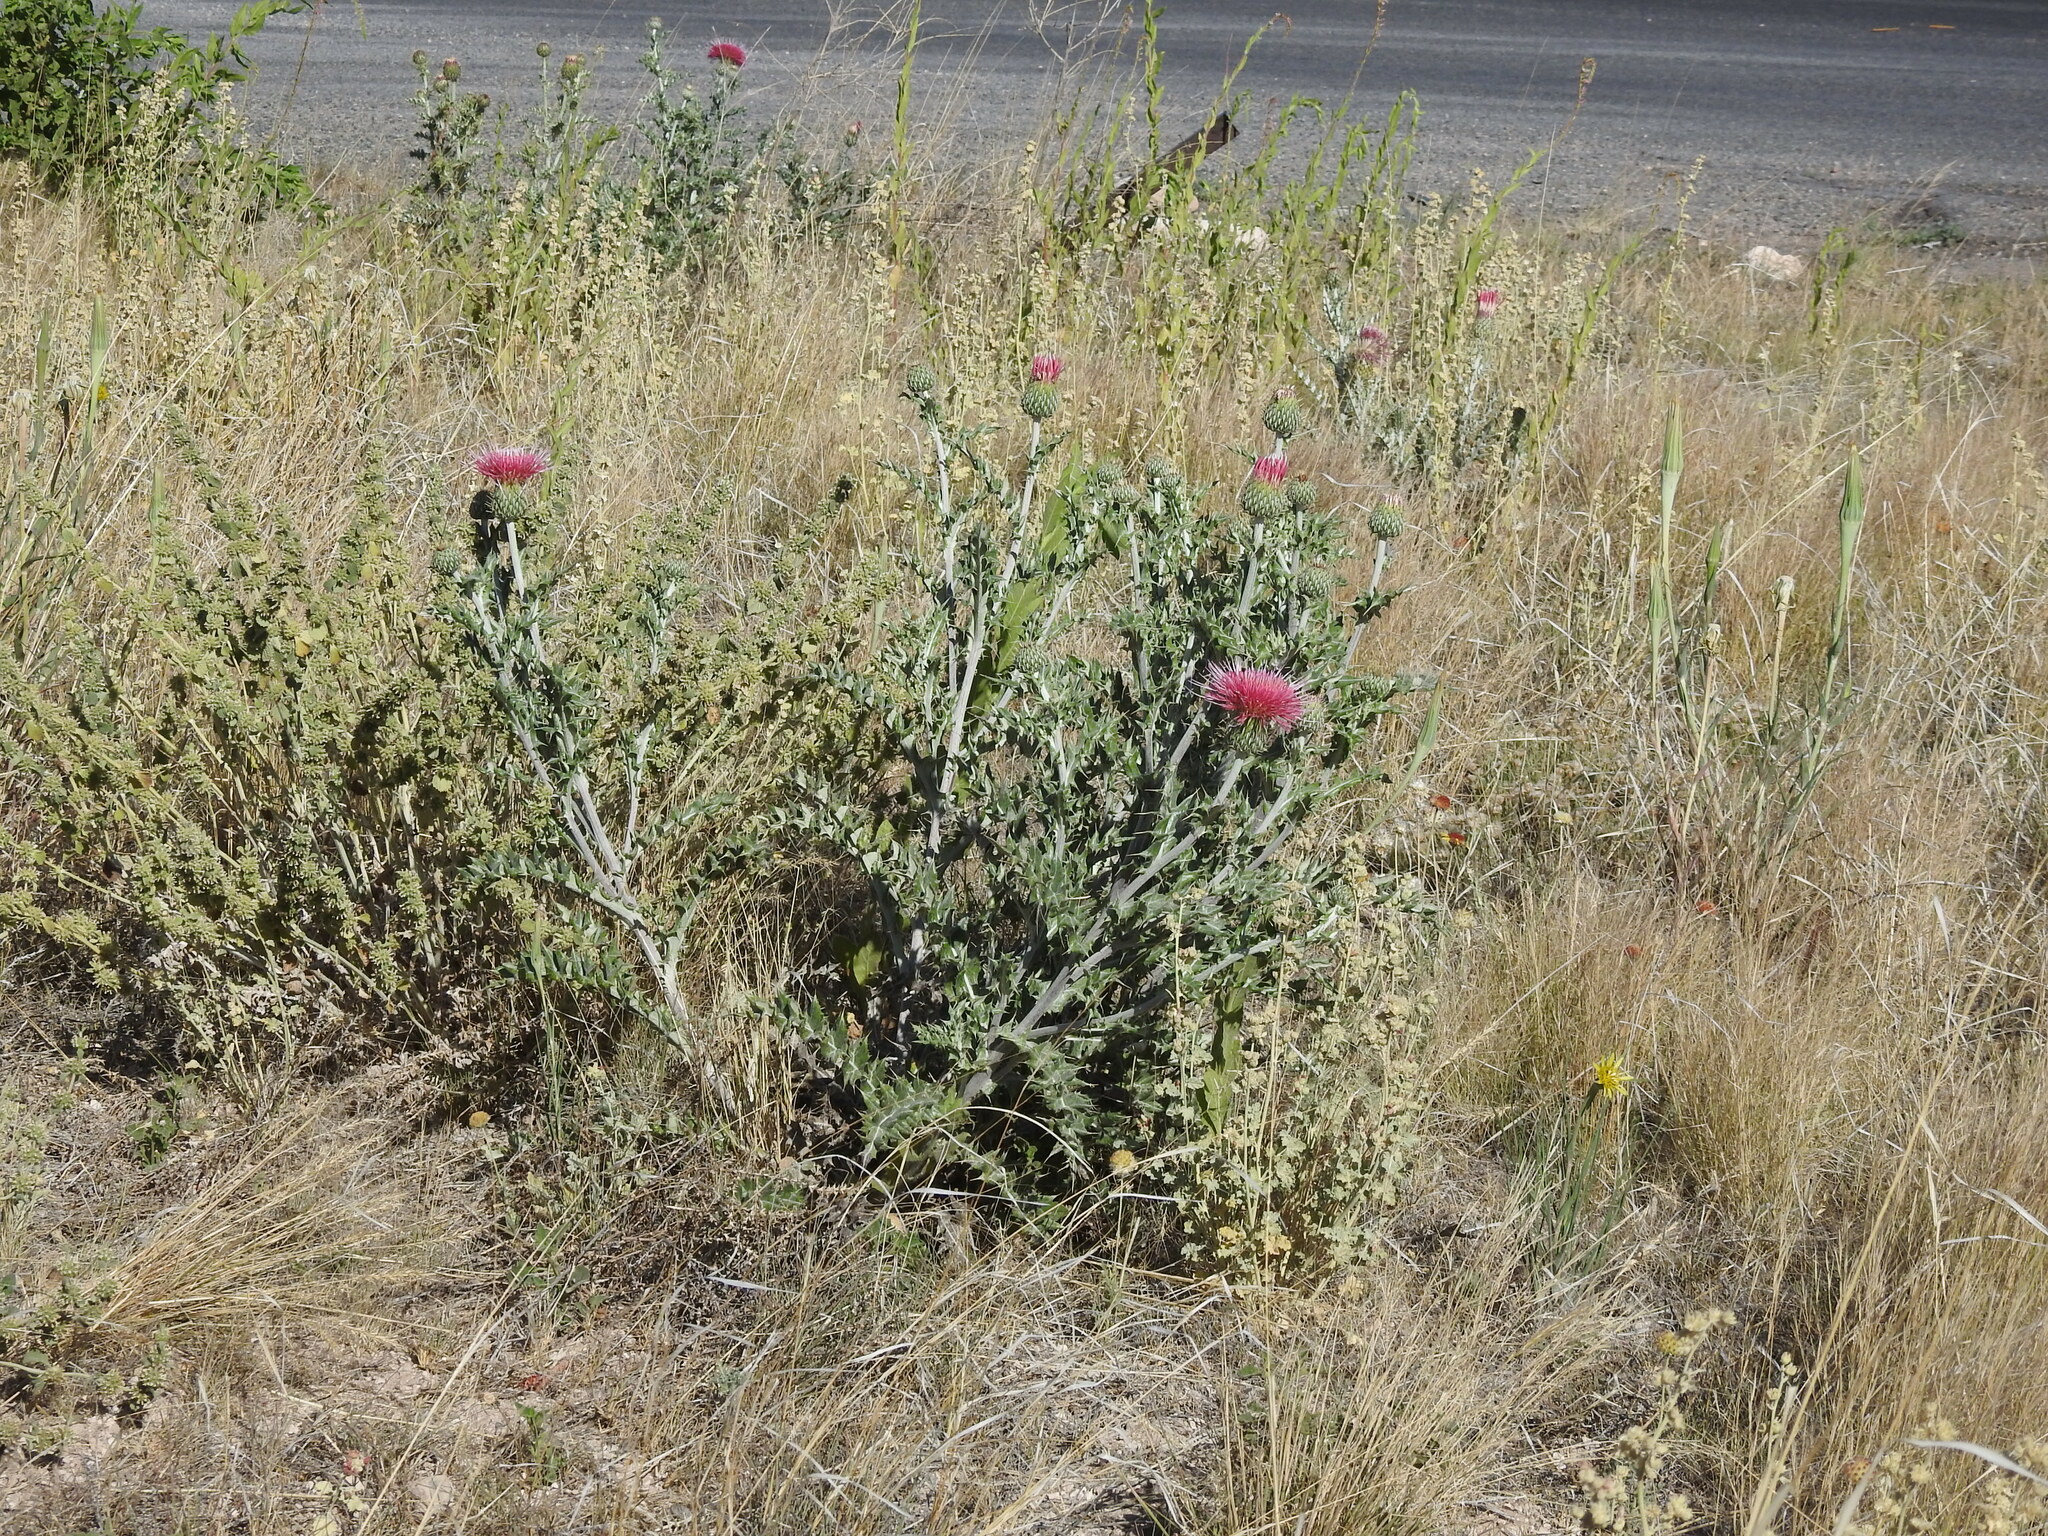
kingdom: Plantae
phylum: Tracheophyta
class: Magnoliopsida
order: Asterales
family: Asteraceae
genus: Cirsium
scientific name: Cirsium ochrocentrum
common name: Yellow-spine thistle
